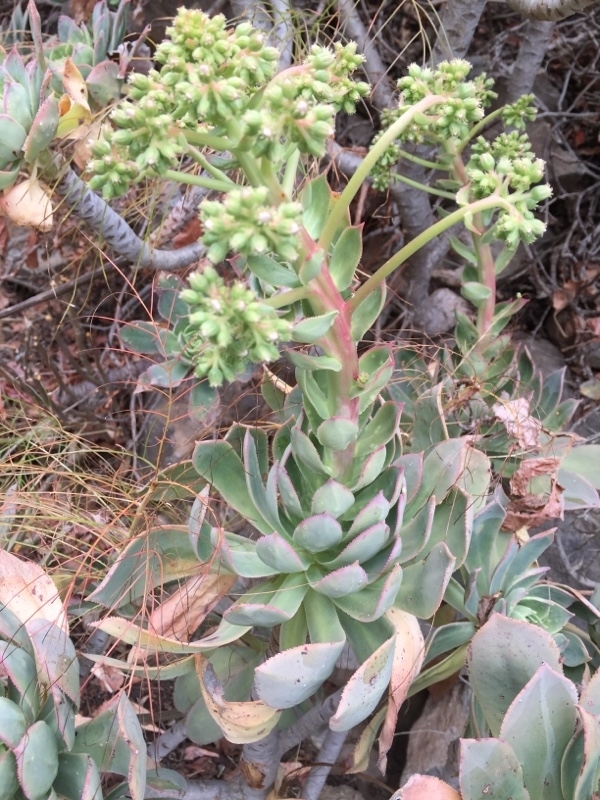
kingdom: Plantae
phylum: Tracheophyta
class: Magnoliopsida
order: Saxifragales
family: Crassulaceae
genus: Aeonium
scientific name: Aeonium percarneum
